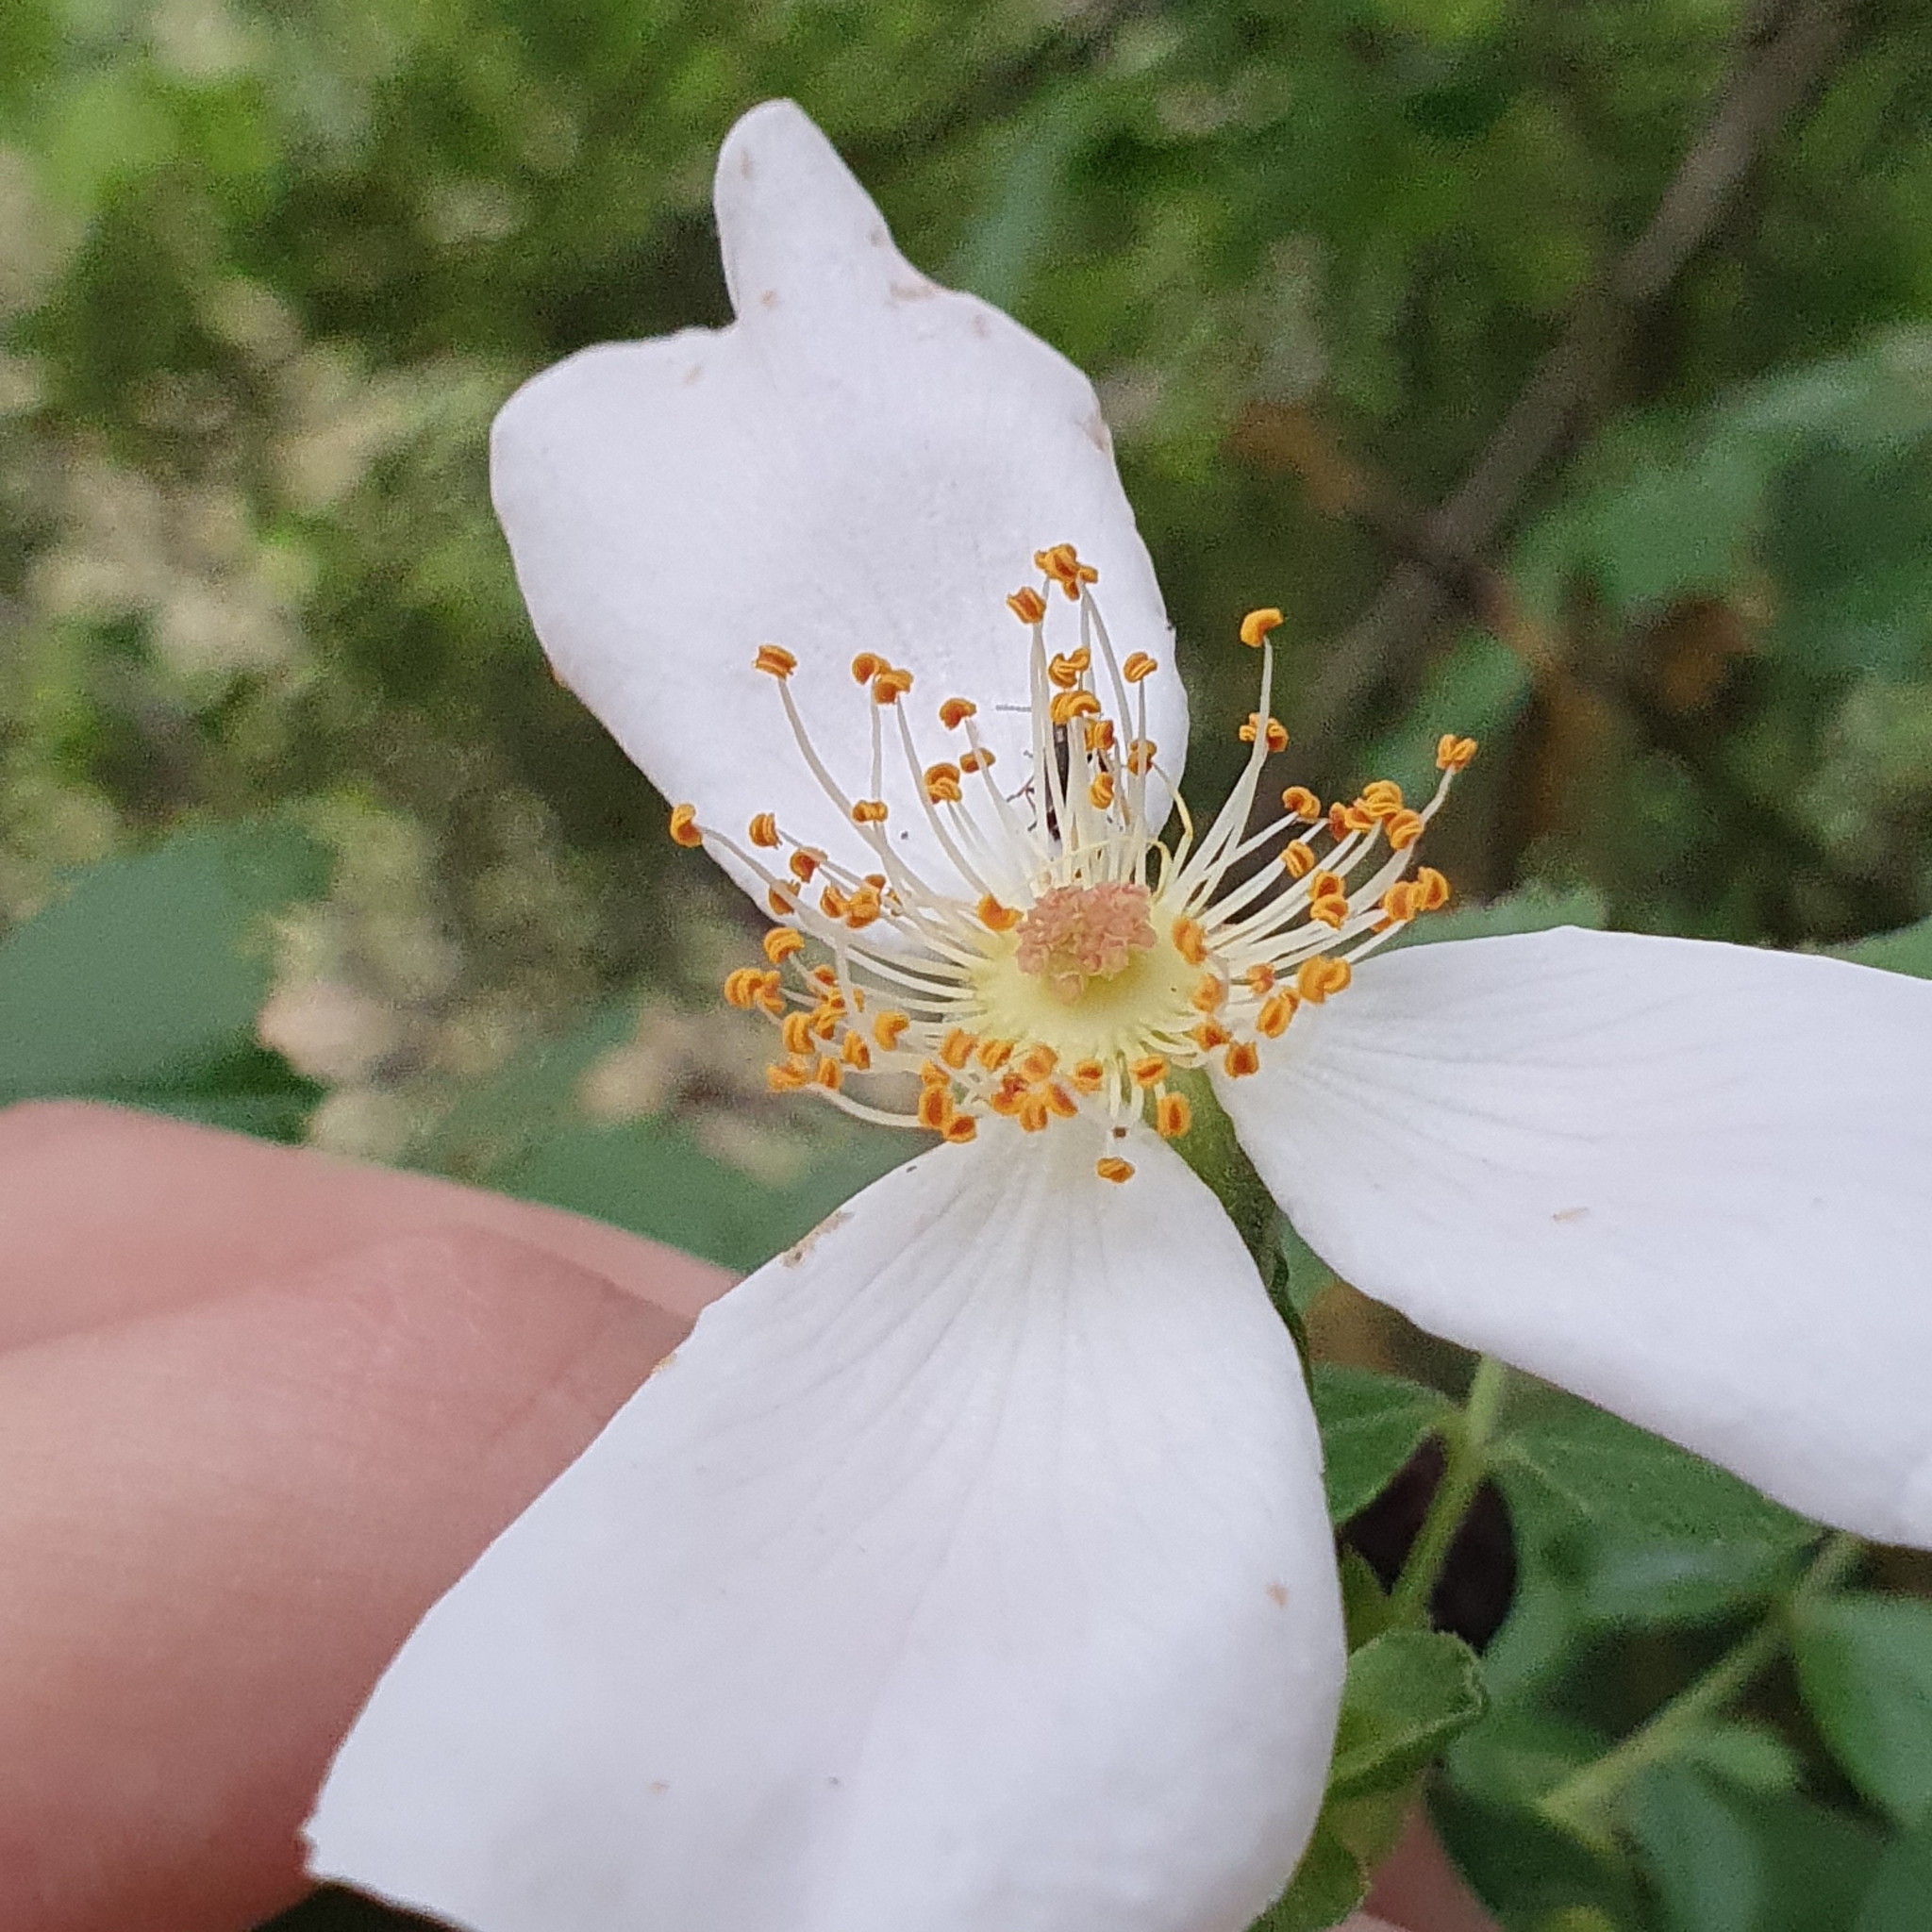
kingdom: Plantae
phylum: Tracheophyta
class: Magnoliopsida
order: Rosales
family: Rosaceae
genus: Rosa
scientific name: Rosa corymbifera
